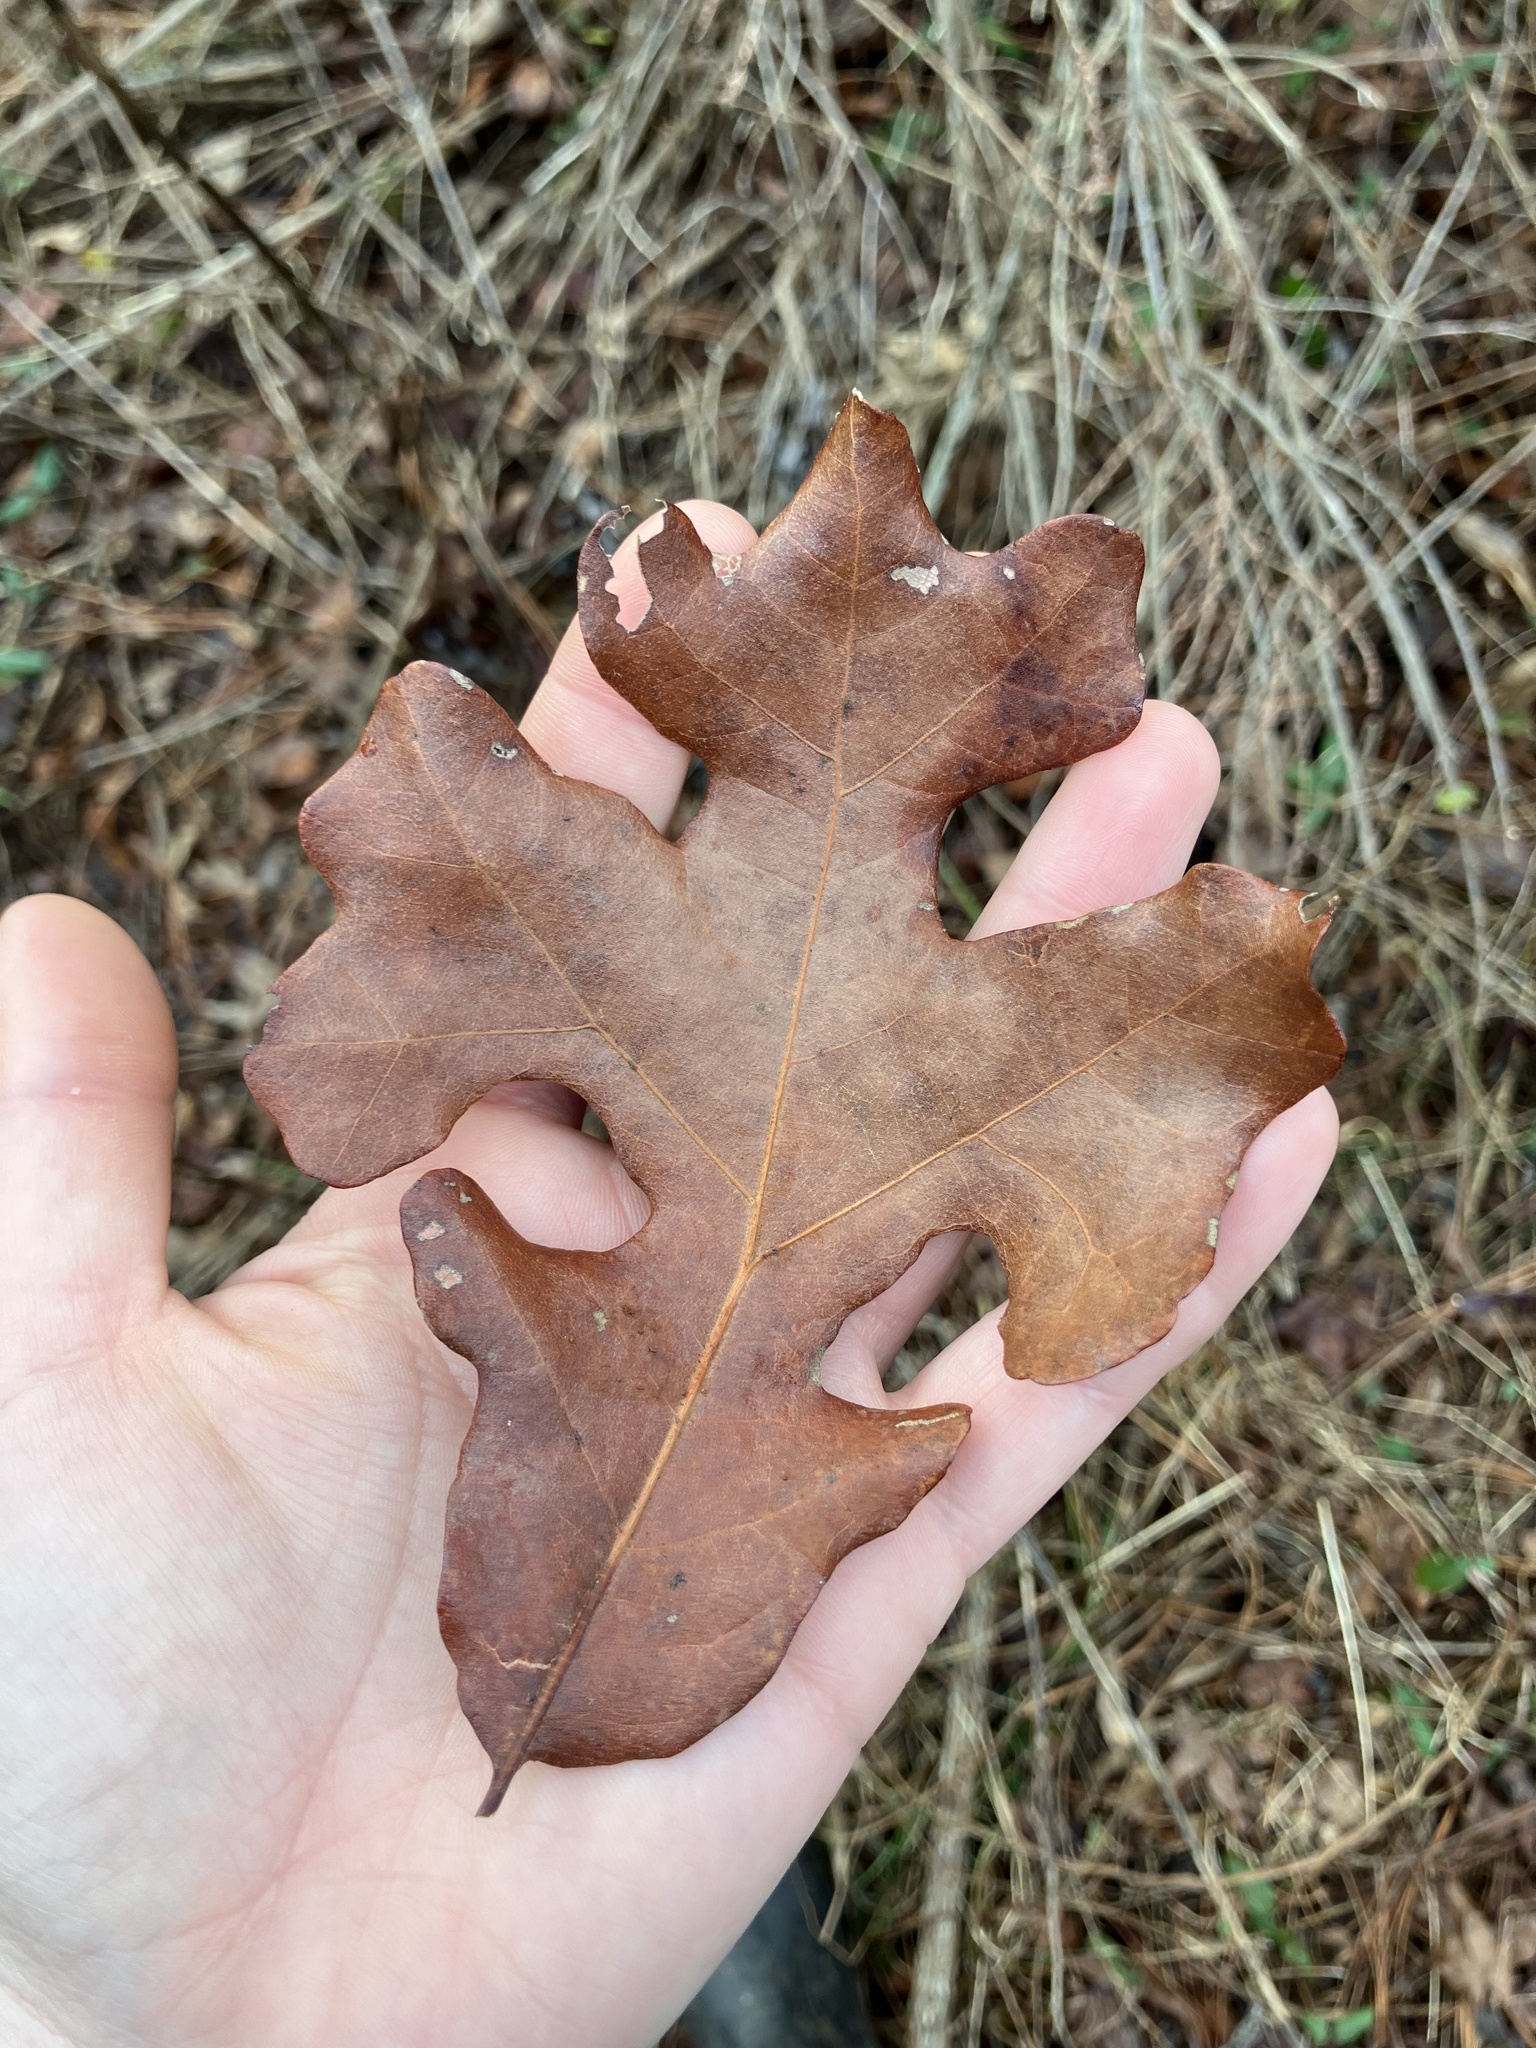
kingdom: Plantae
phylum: Tracheophyta
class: Magnoliopsida
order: Fagales
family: Fagaceae
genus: Quercus
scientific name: Quercus stellata
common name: Post oak
